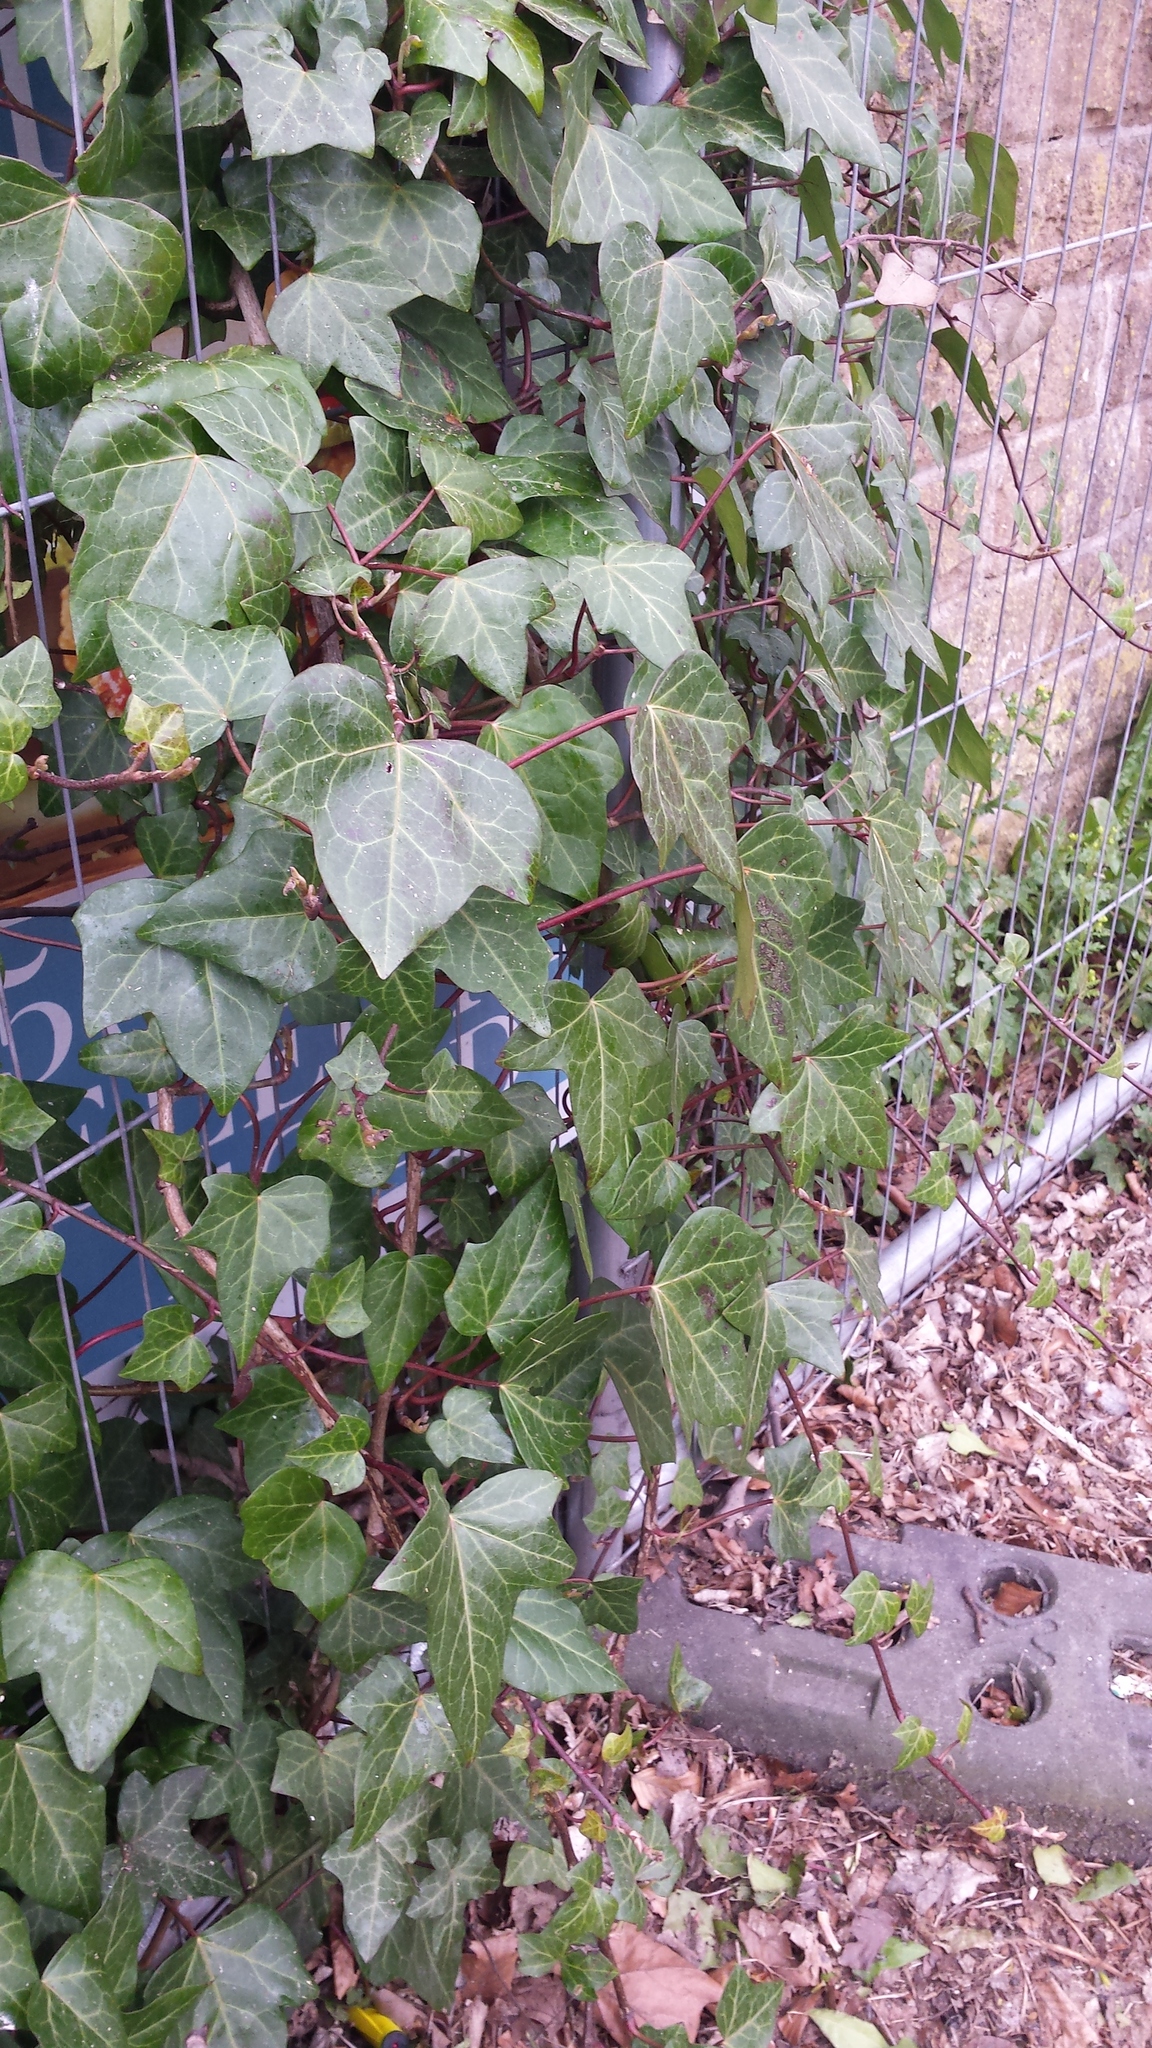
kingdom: Plantae
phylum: Tracheophyta
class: Magnoliopsida
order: Apiales
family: Araliaceae
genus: Hedera
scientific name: Hedera helix
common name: Ivy
